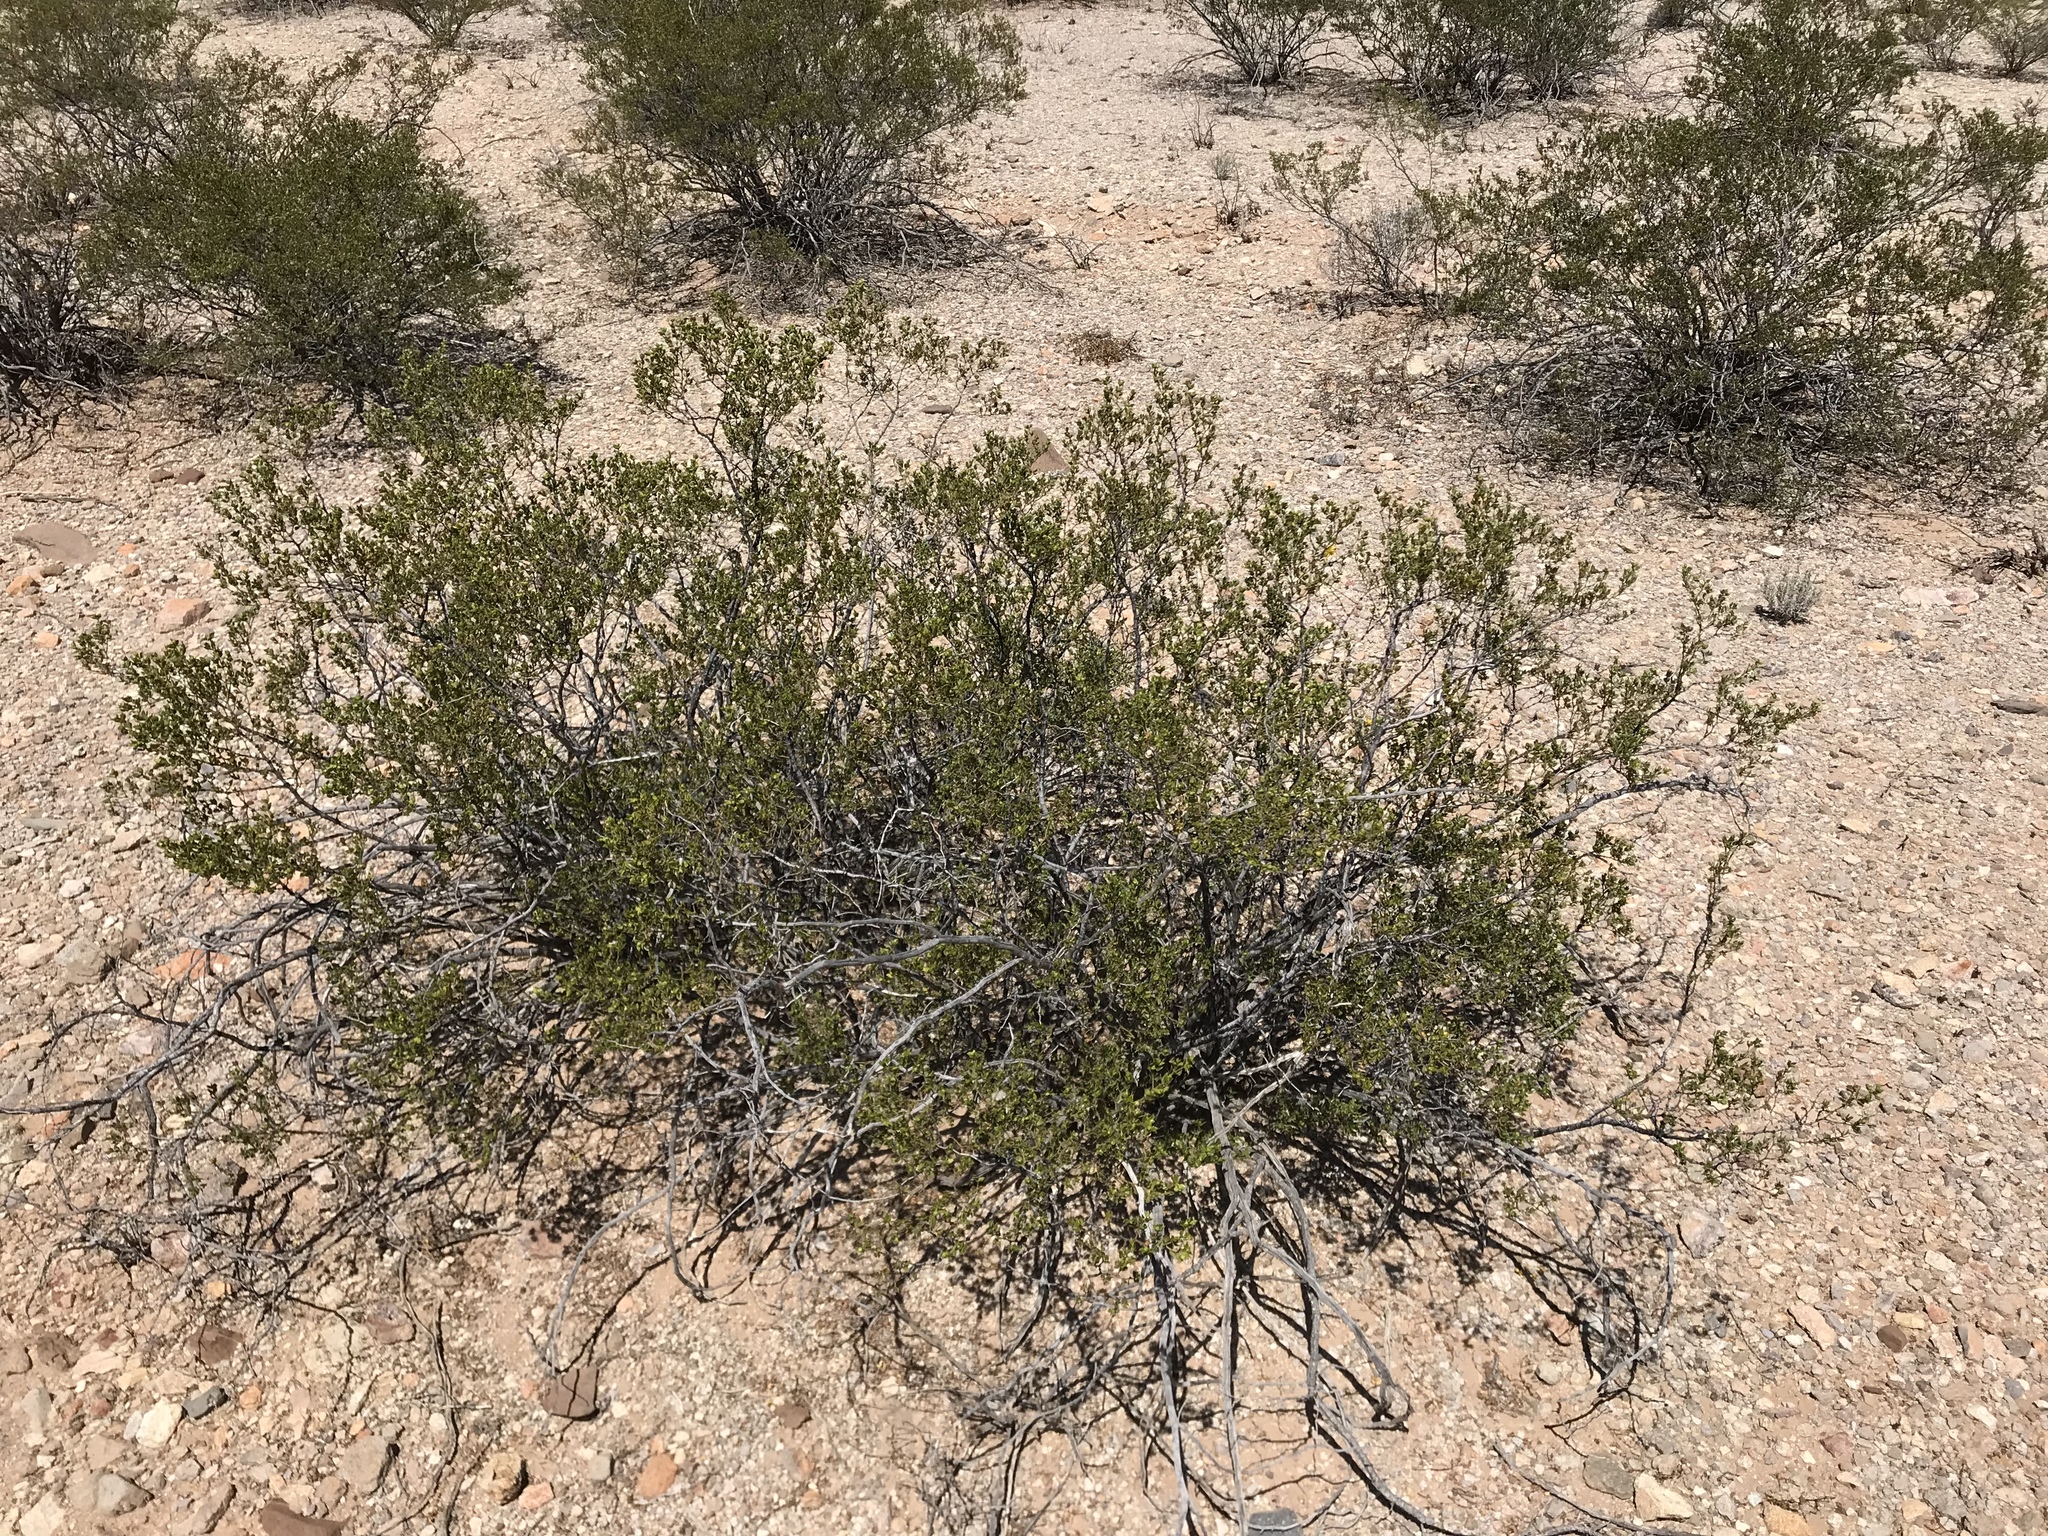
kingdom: Plantae
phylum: Tracheophyta
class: Magnoliopsida
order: Zygophyllales
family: Zygophyllaceae
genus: Larrea
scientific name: Larrea tridentata
